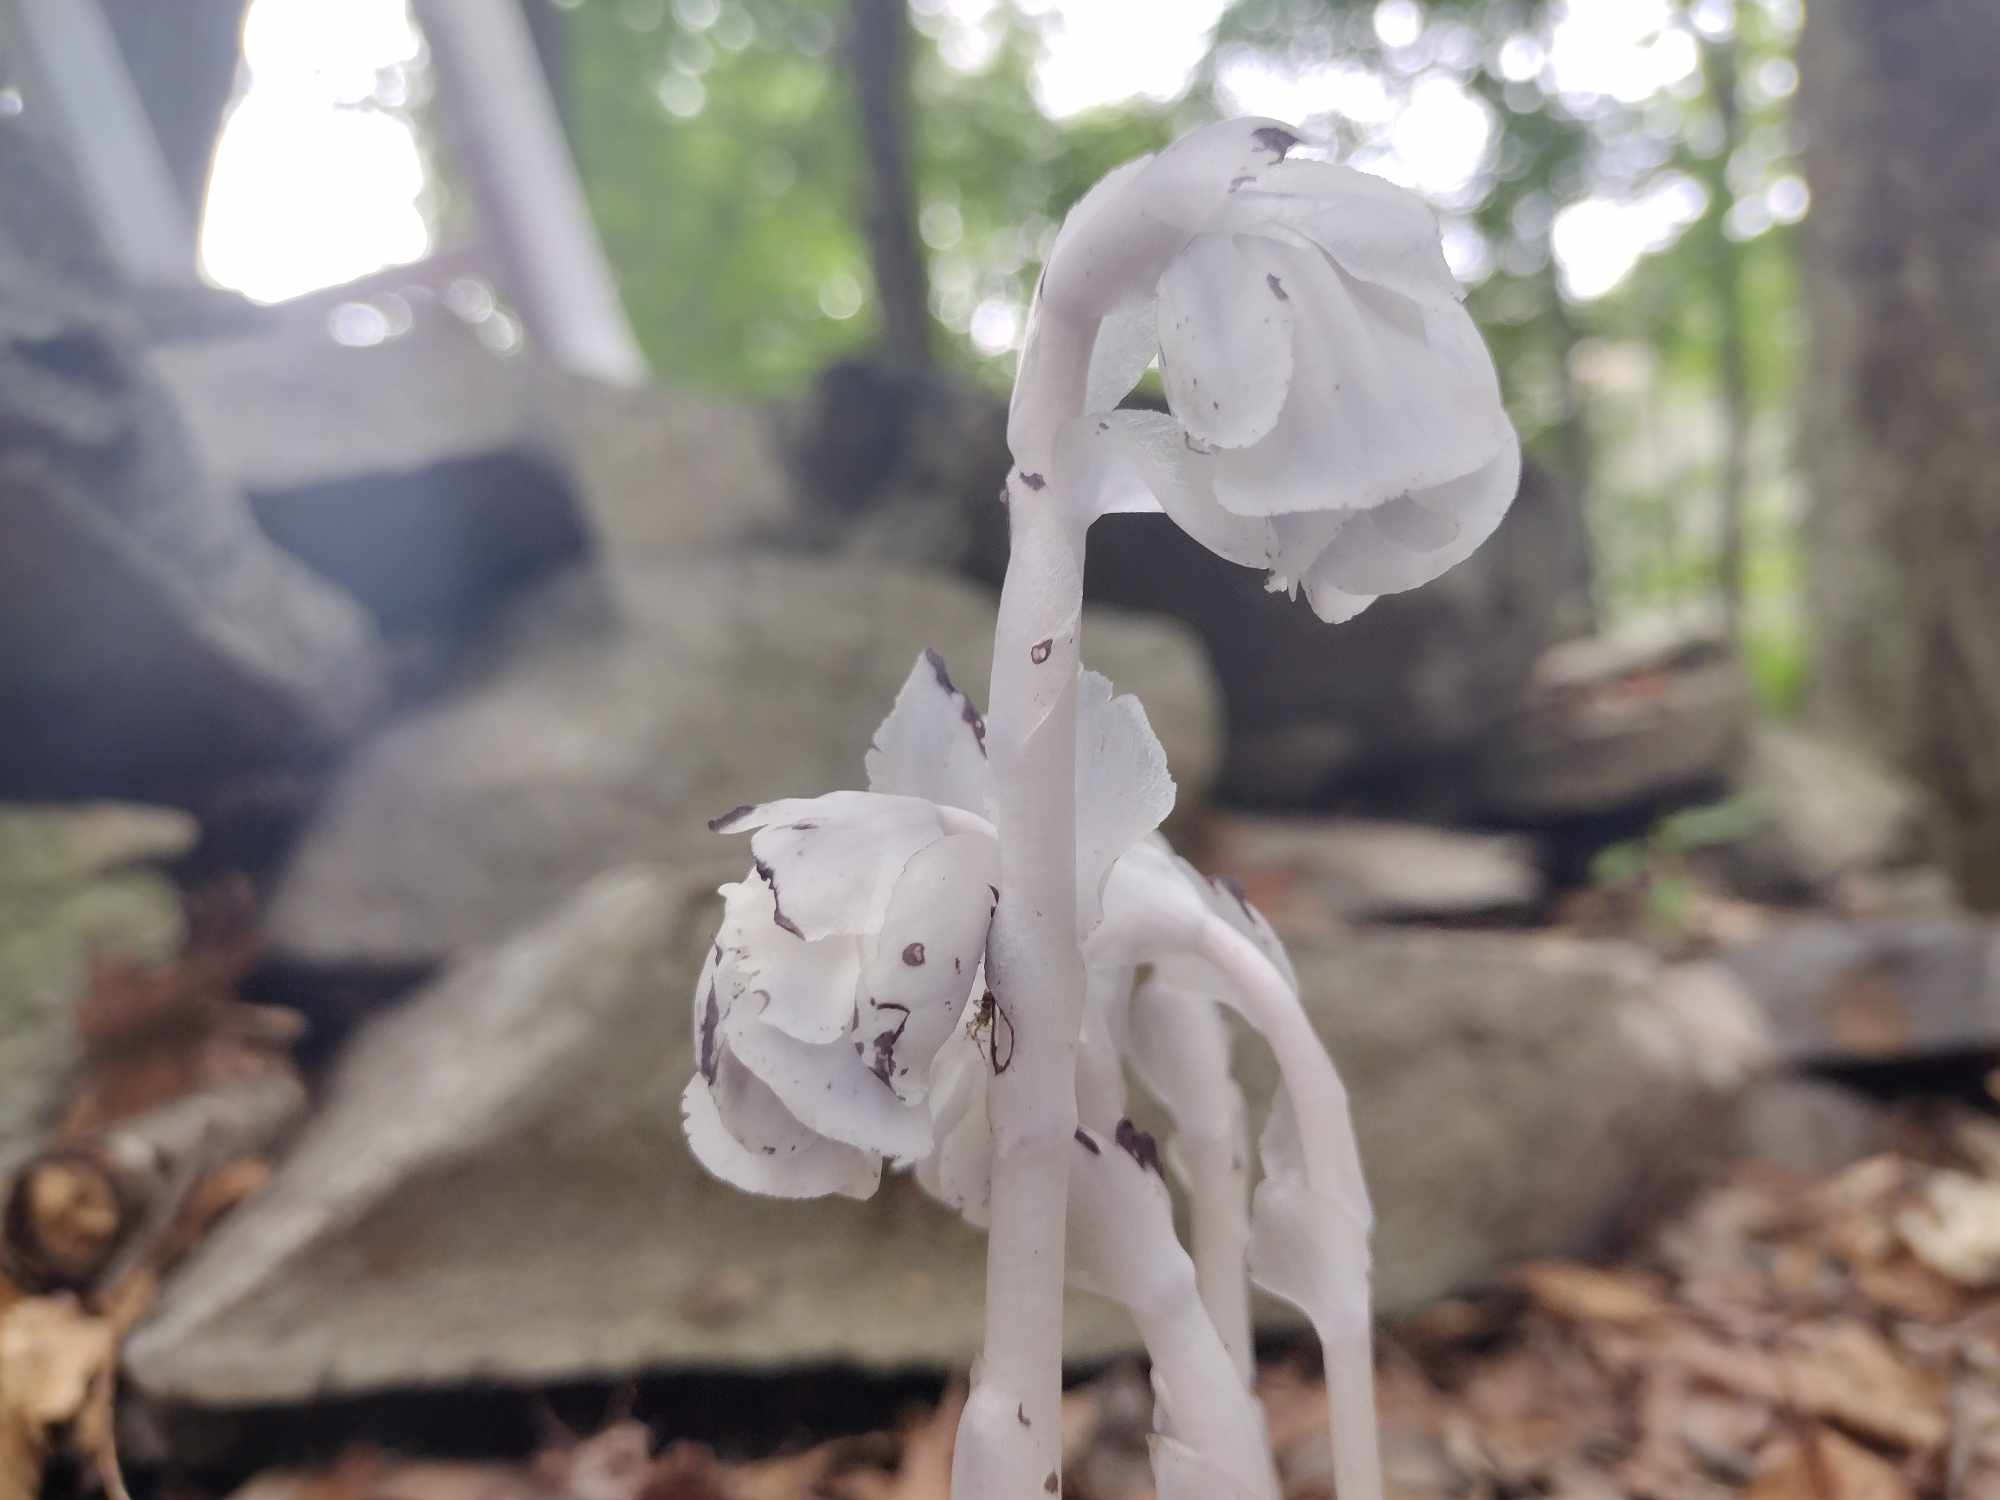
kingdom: Plantae
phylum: Tracheophyta
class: Magnoliopsida
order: Ericales
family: Ericaceae
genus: Monotropa
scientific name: Monotropa uniflora
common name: Convulsion root
